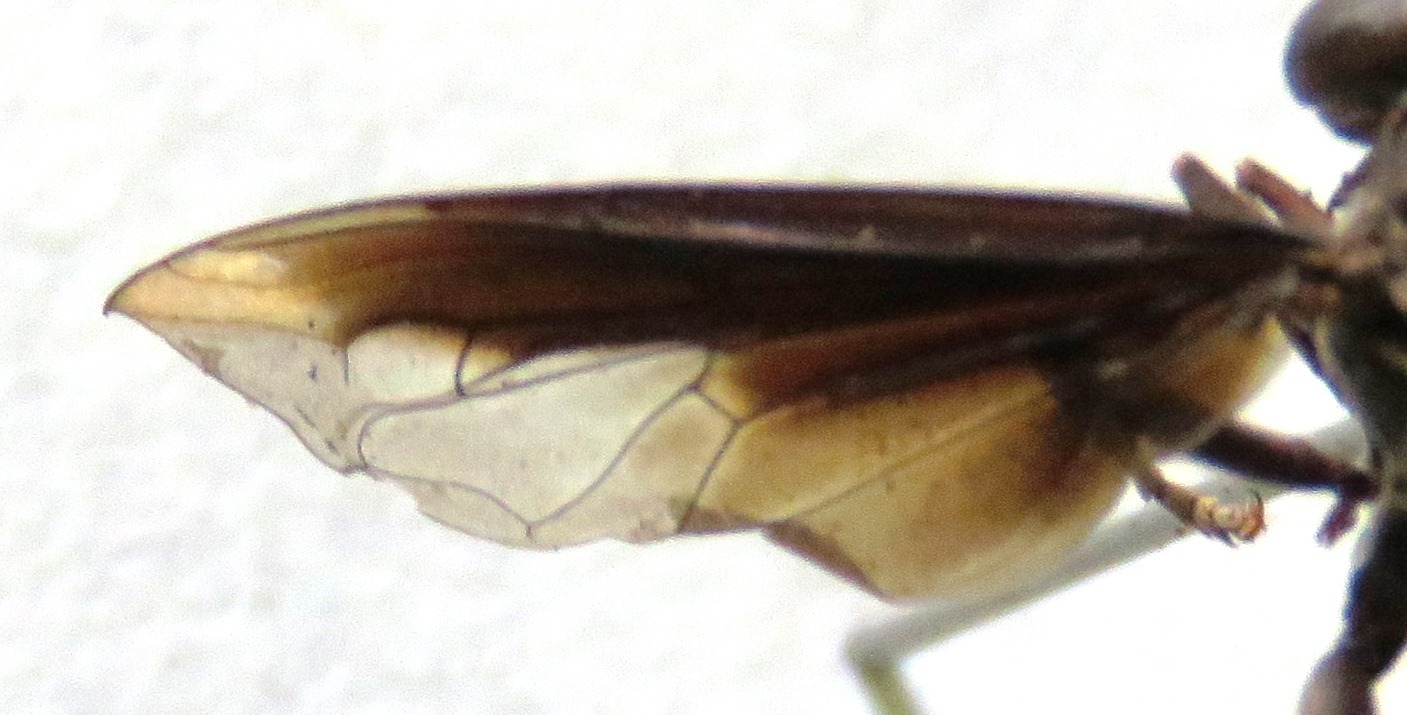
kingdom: Animalia
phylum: Arthropoda
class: Insecta
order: Diptera
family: Syrphidae
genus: Polybiomyia
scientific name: Polybiomyia schwarzi
